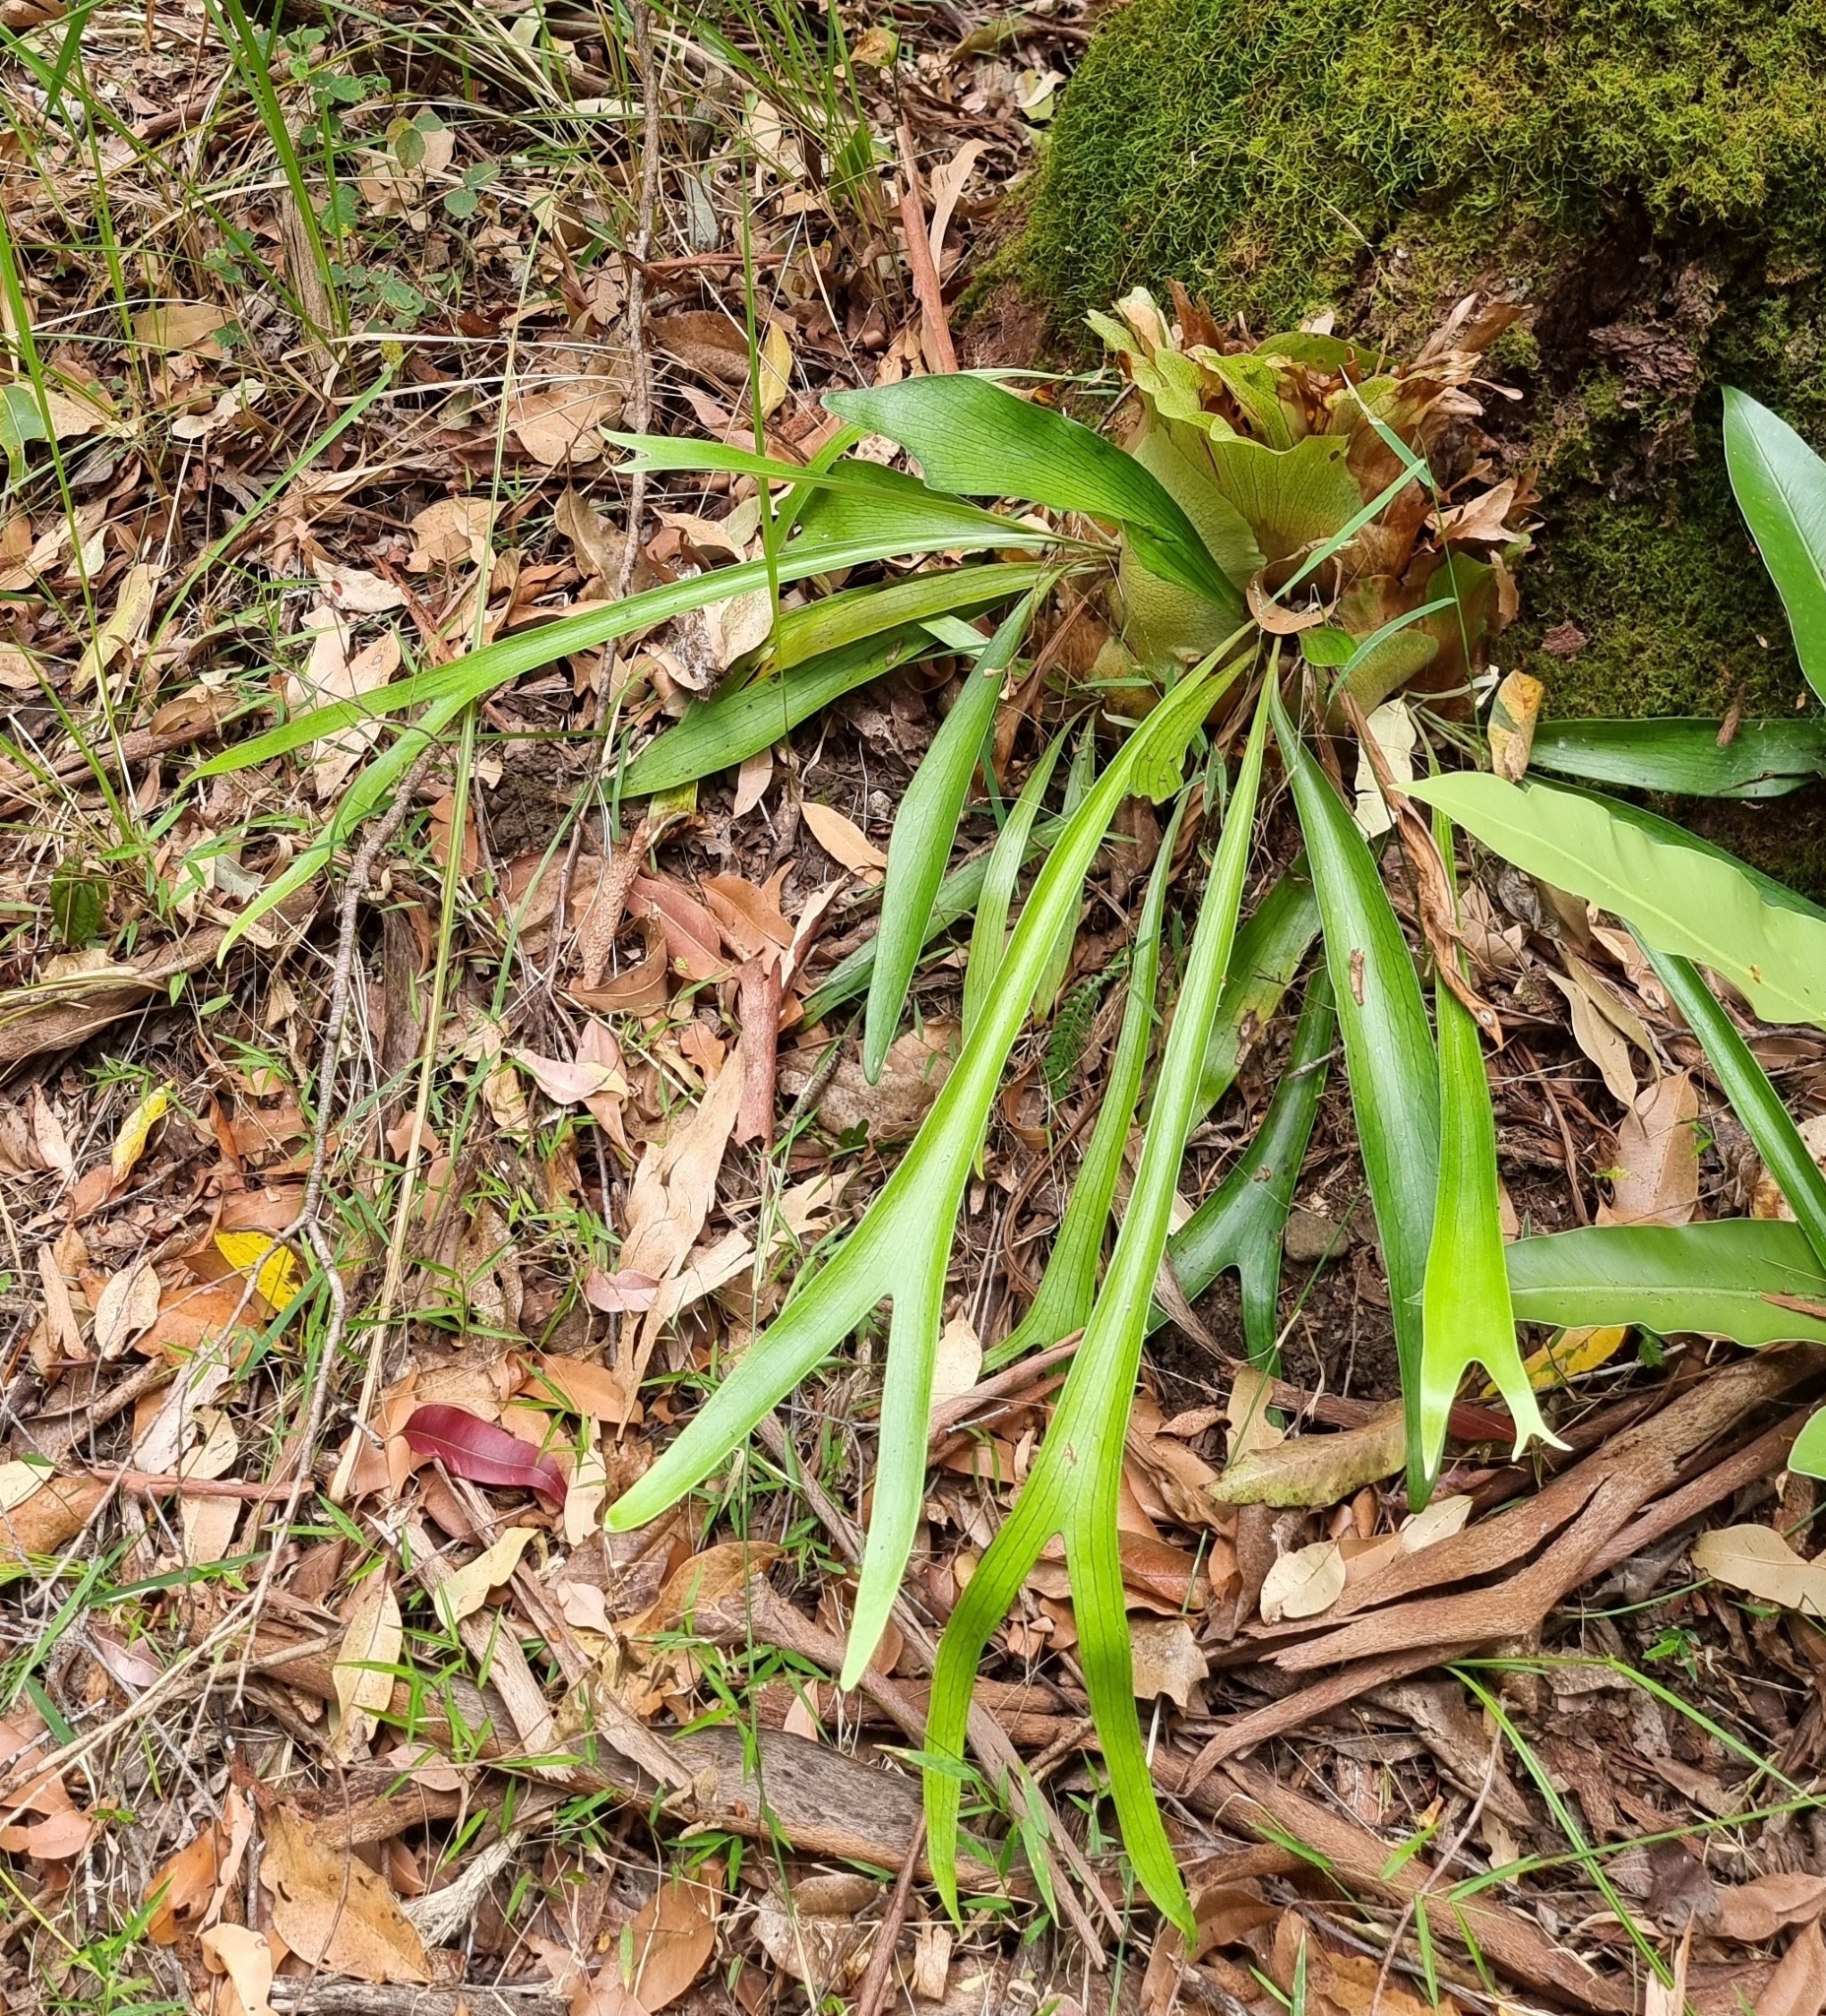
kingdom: Plantae
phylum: Tracheophyta
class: Polypodiopsida
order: Polypodiales
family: Polypodiaceae
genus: Platycerium
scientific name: Platycerium bifurcatum
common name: Elkhorn fern
